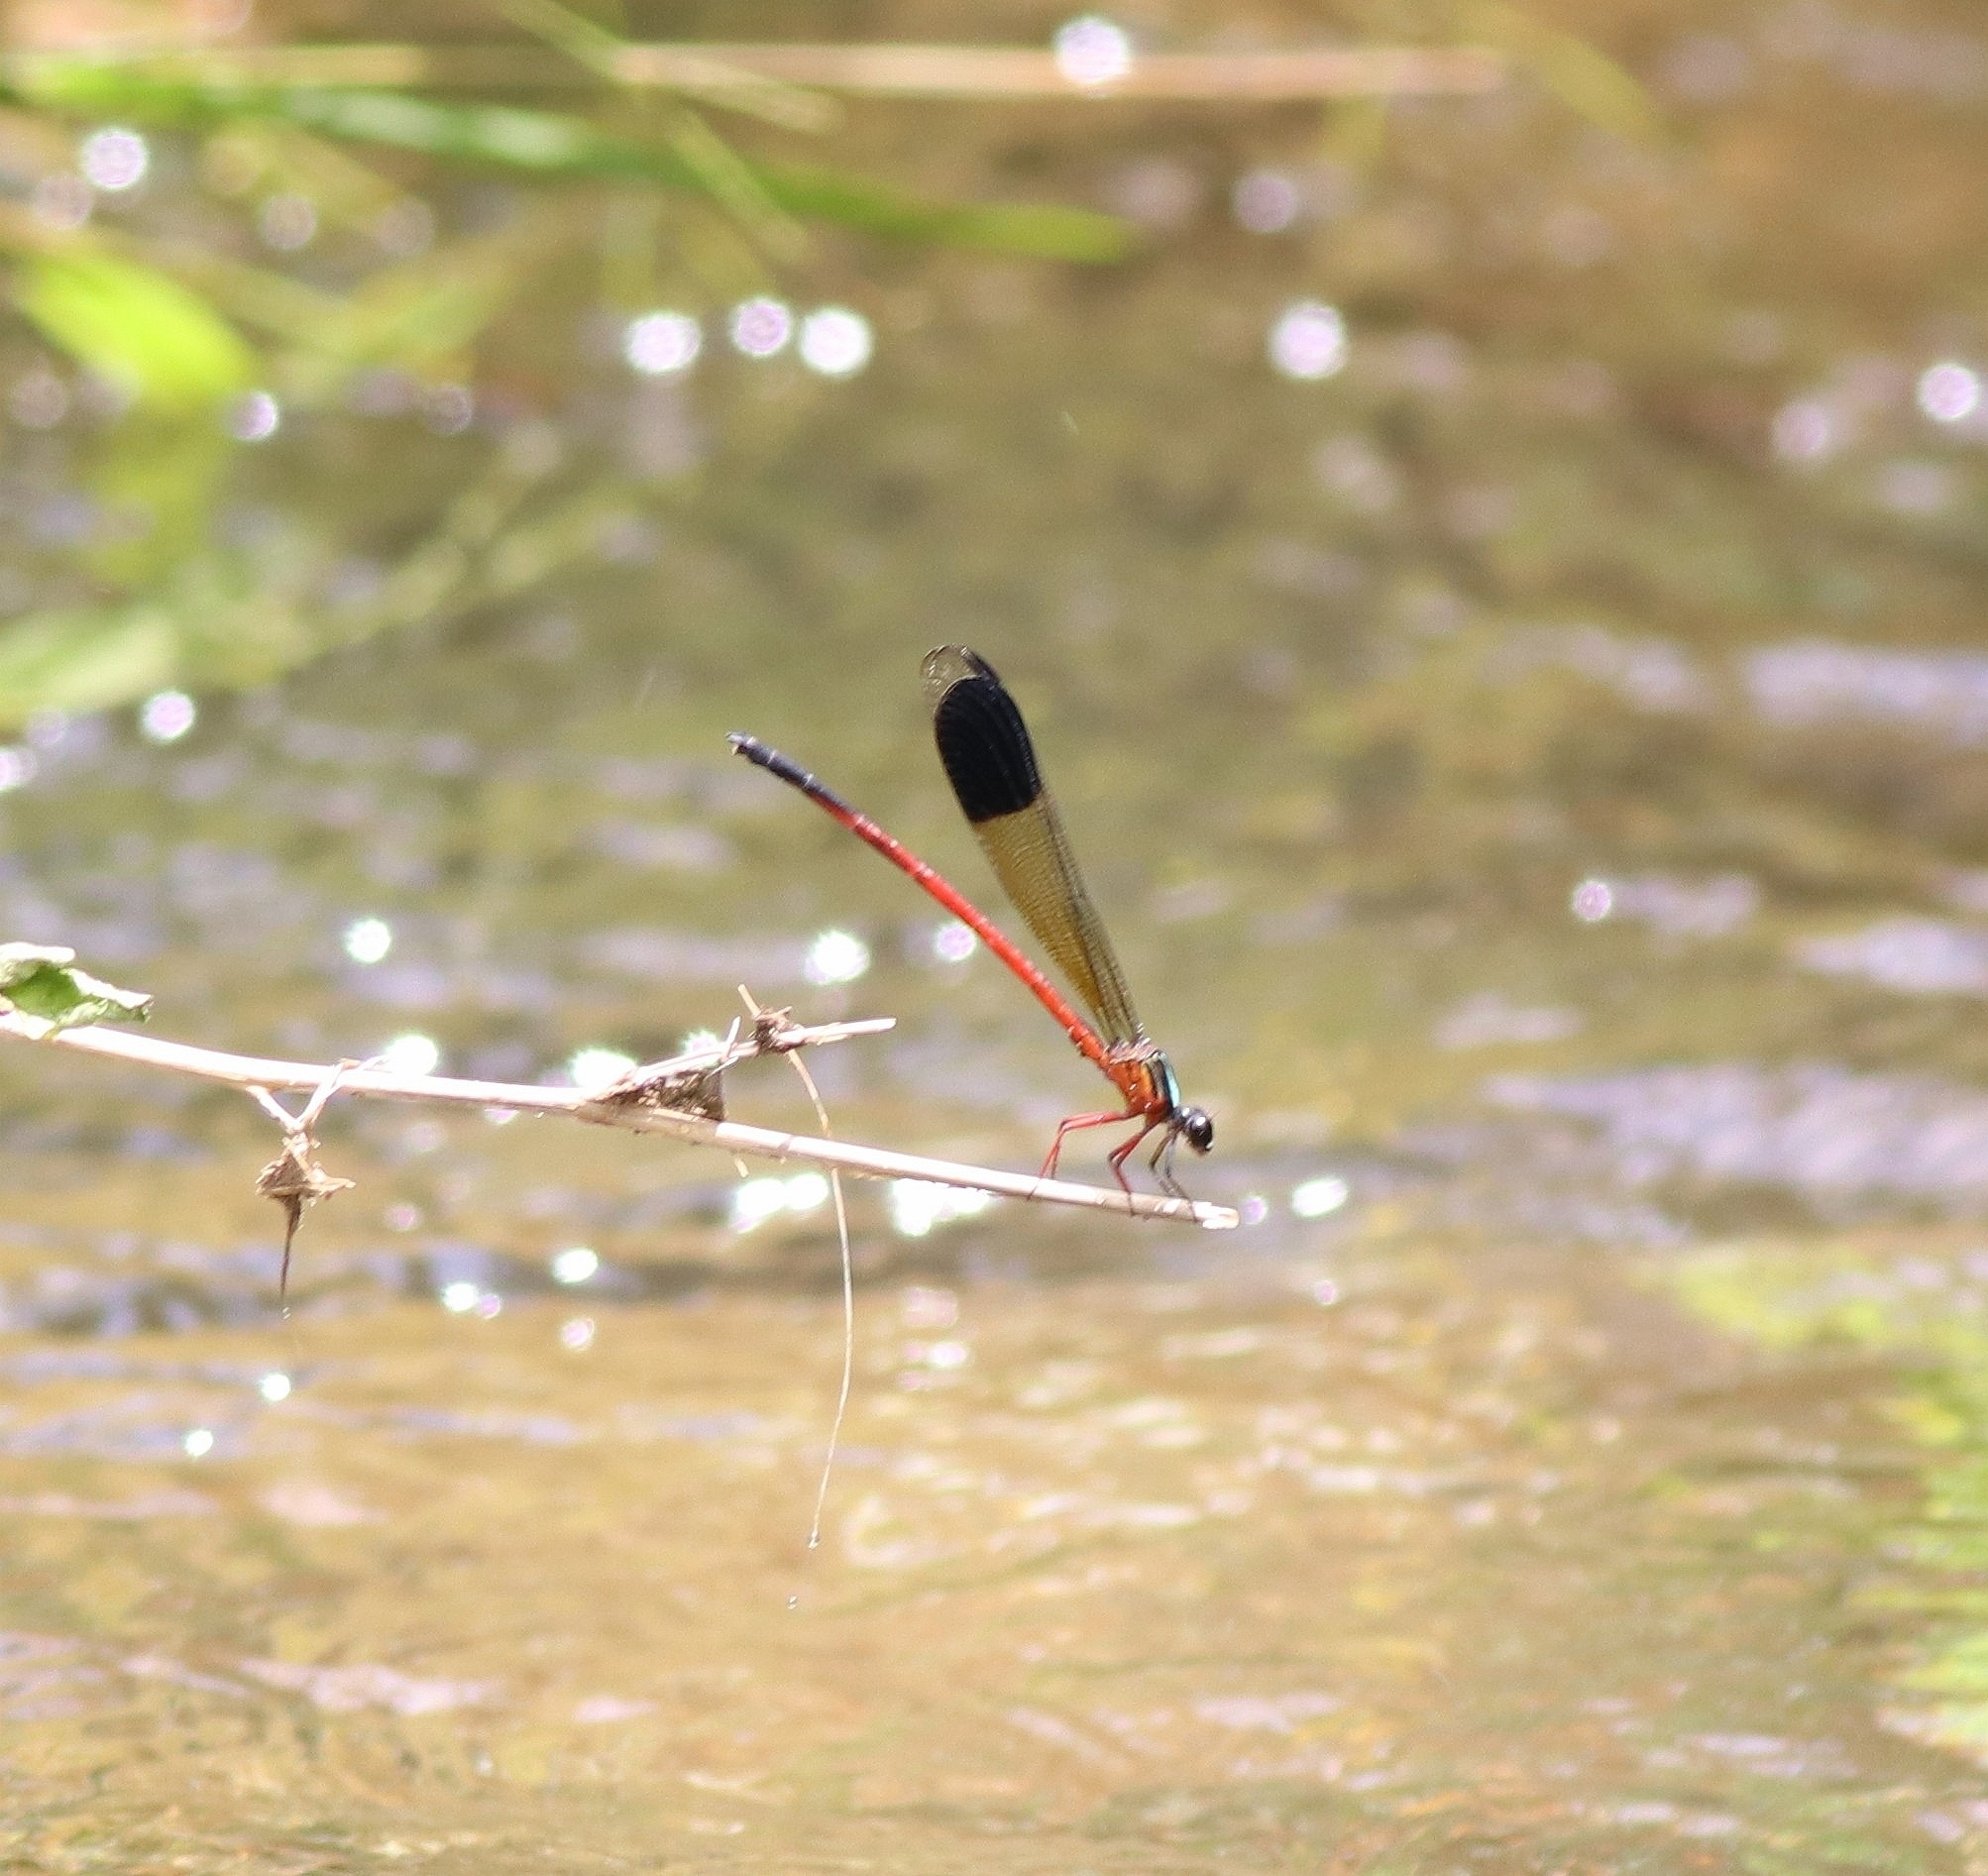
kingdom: Animalia
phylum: Arthropoda
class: Insecta
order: Odonata
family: Euphaeidae
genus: Euphaea
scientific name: Euphaea fraseri
